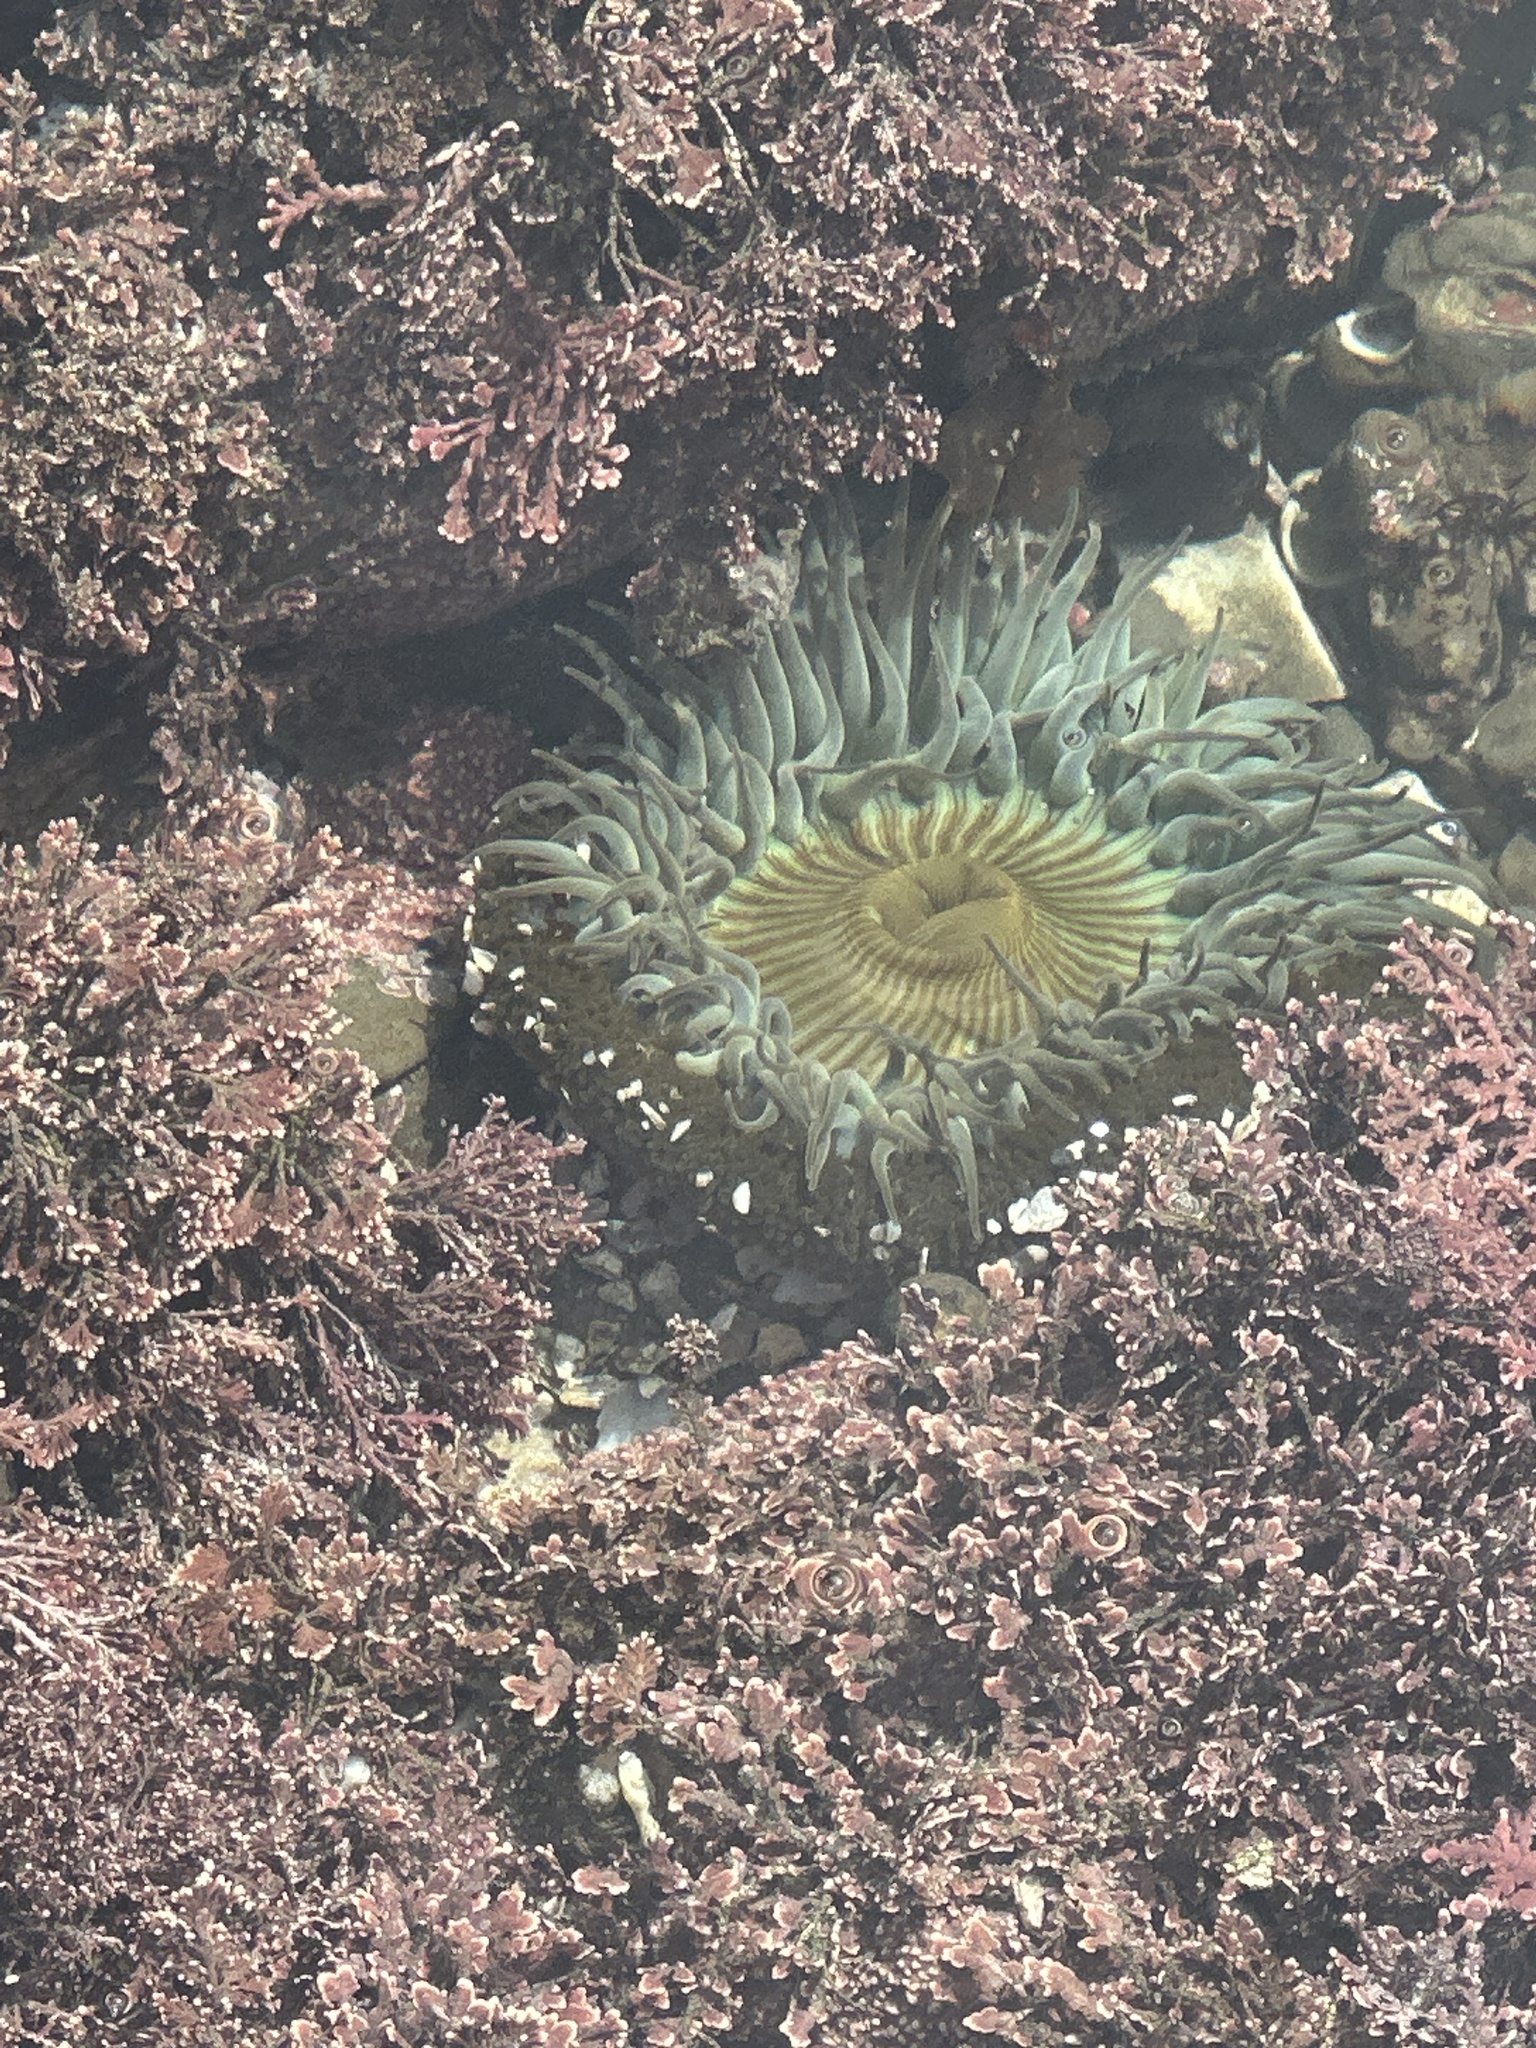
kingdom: Animalia
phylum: Cnidaria
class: Anthozoa
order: Actiniaria
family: Actiniidae
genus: Anthopleura
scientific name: Anthopleura sola
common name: Sun anemone
